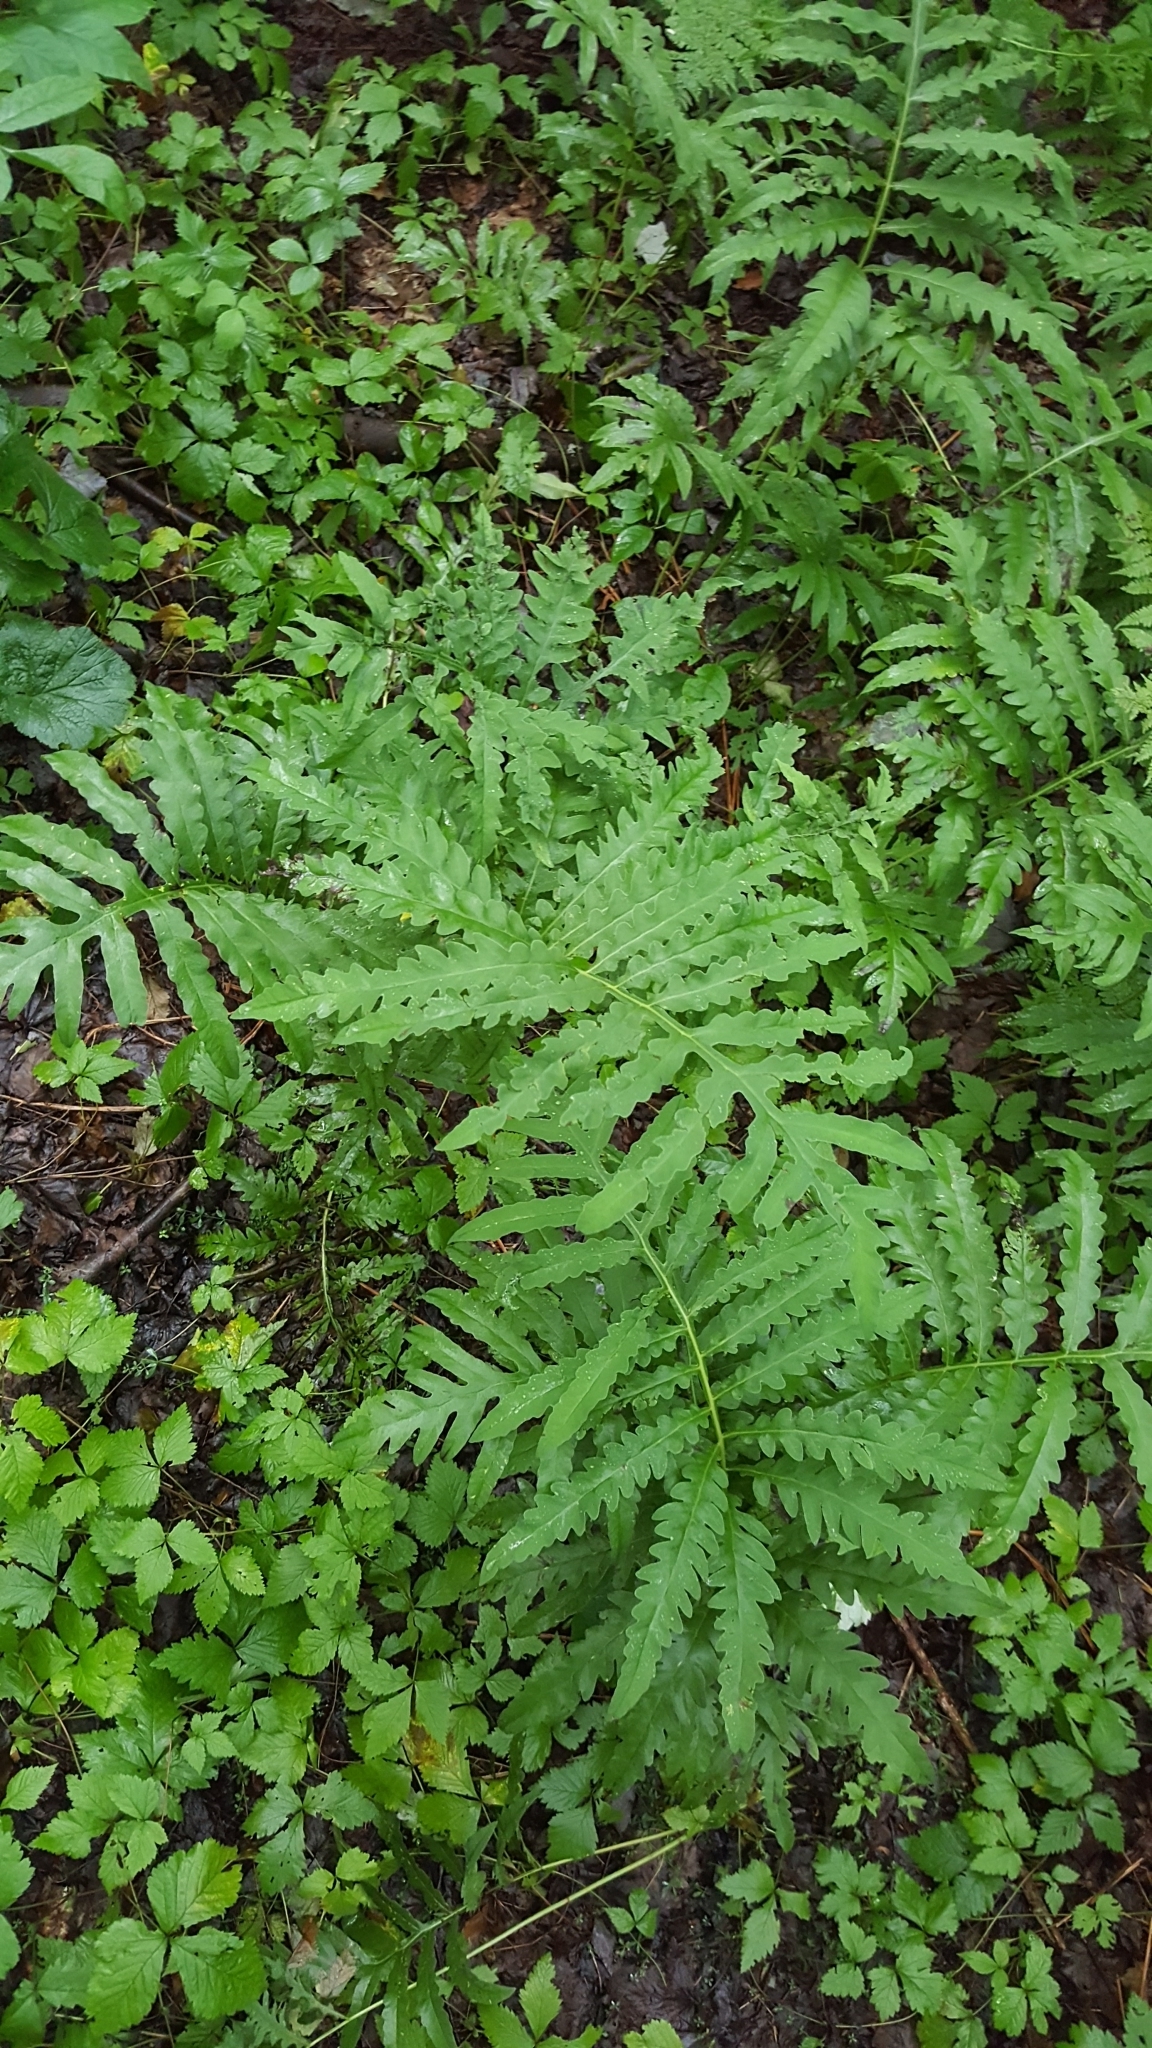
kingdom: Plantae
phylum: Tracheophyta
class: Polypodiopsida
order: Polypodiales
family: Onocleaceae
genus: Onoclea
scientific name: Onoclea sensibilis
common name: Sensitive fern
